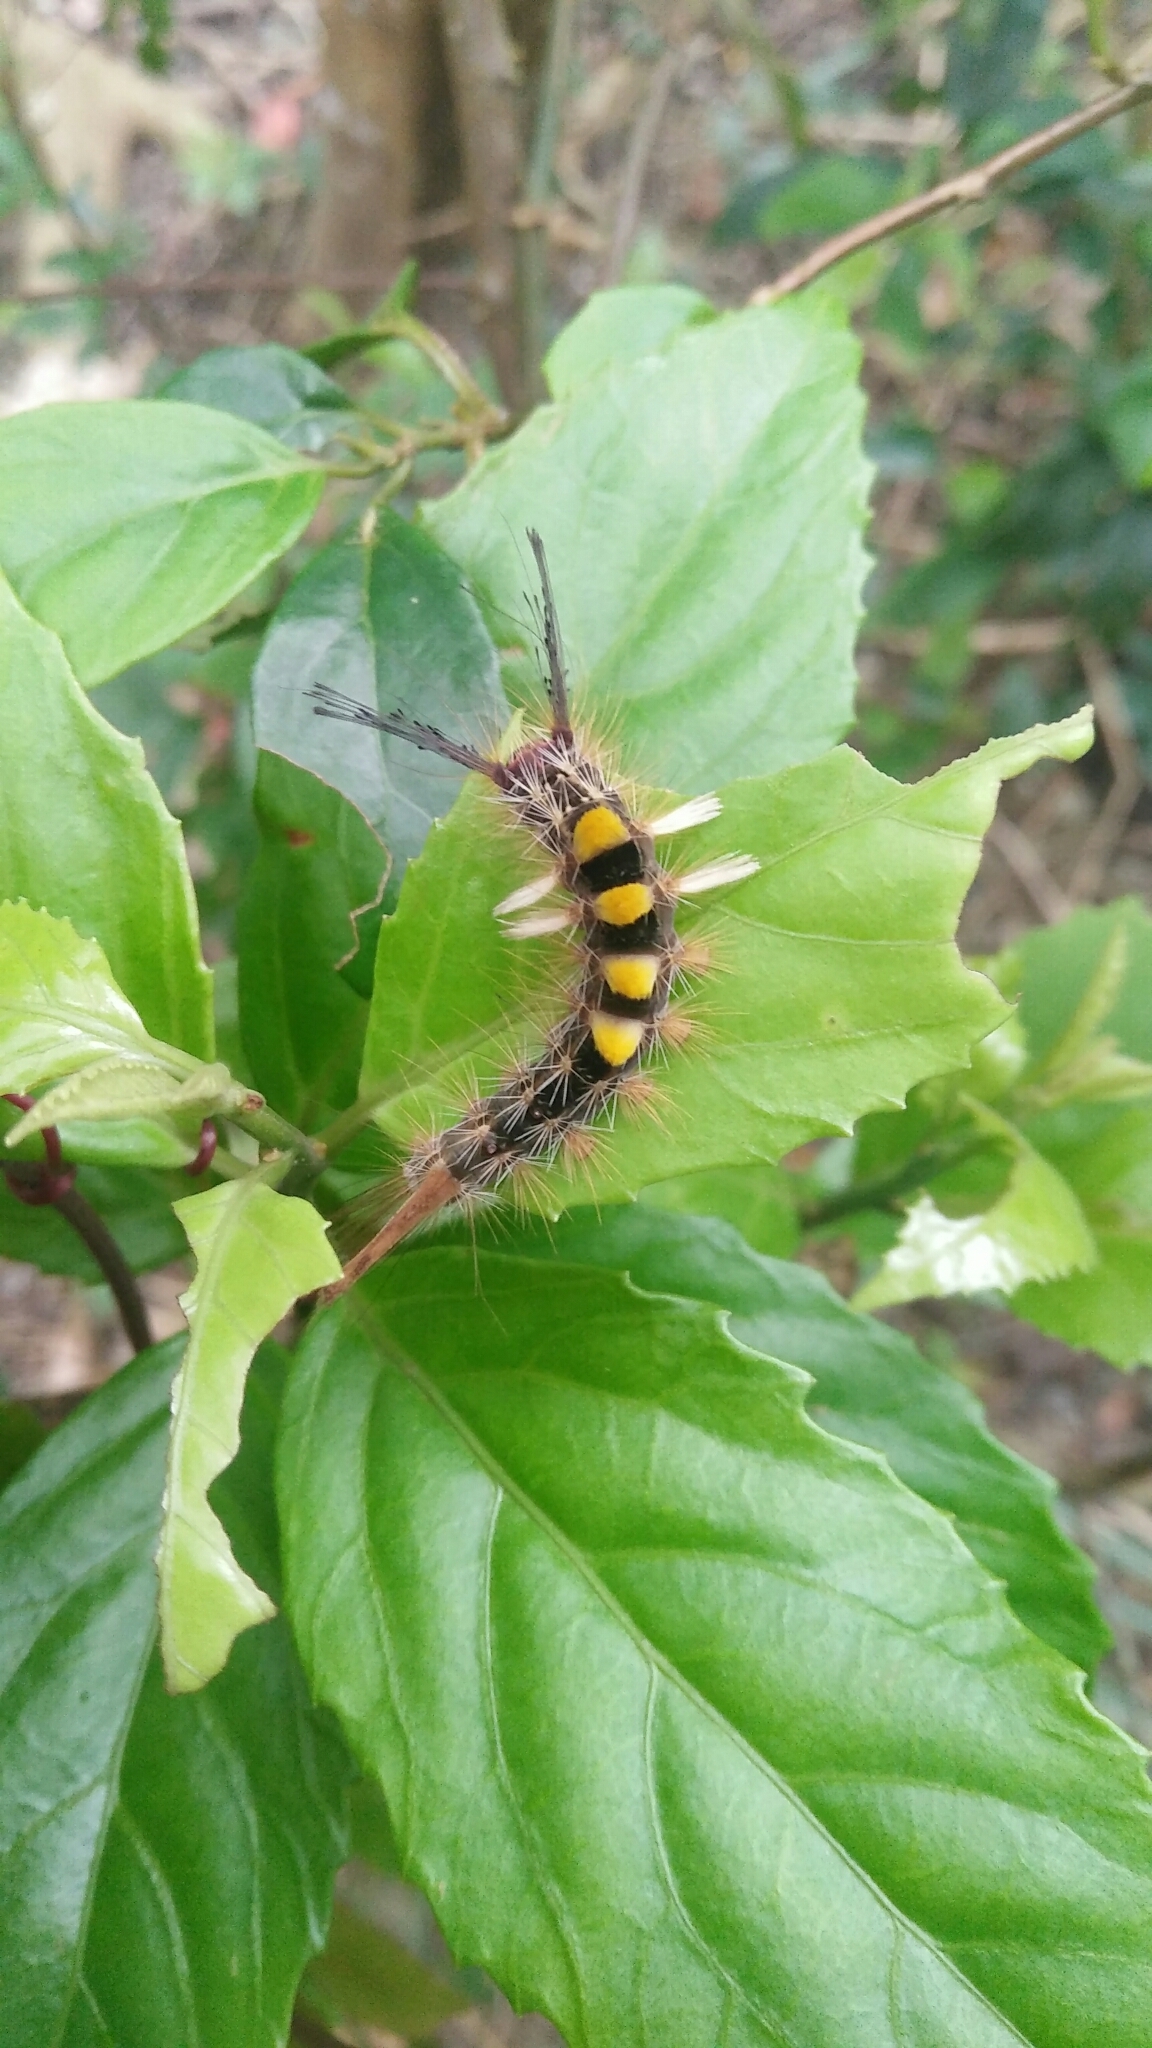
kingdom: Animalia
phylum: Arthropoda
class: Insecta
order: Lepidoptera
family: Erebidae
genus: Orgyia
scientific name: Orgyia postica
